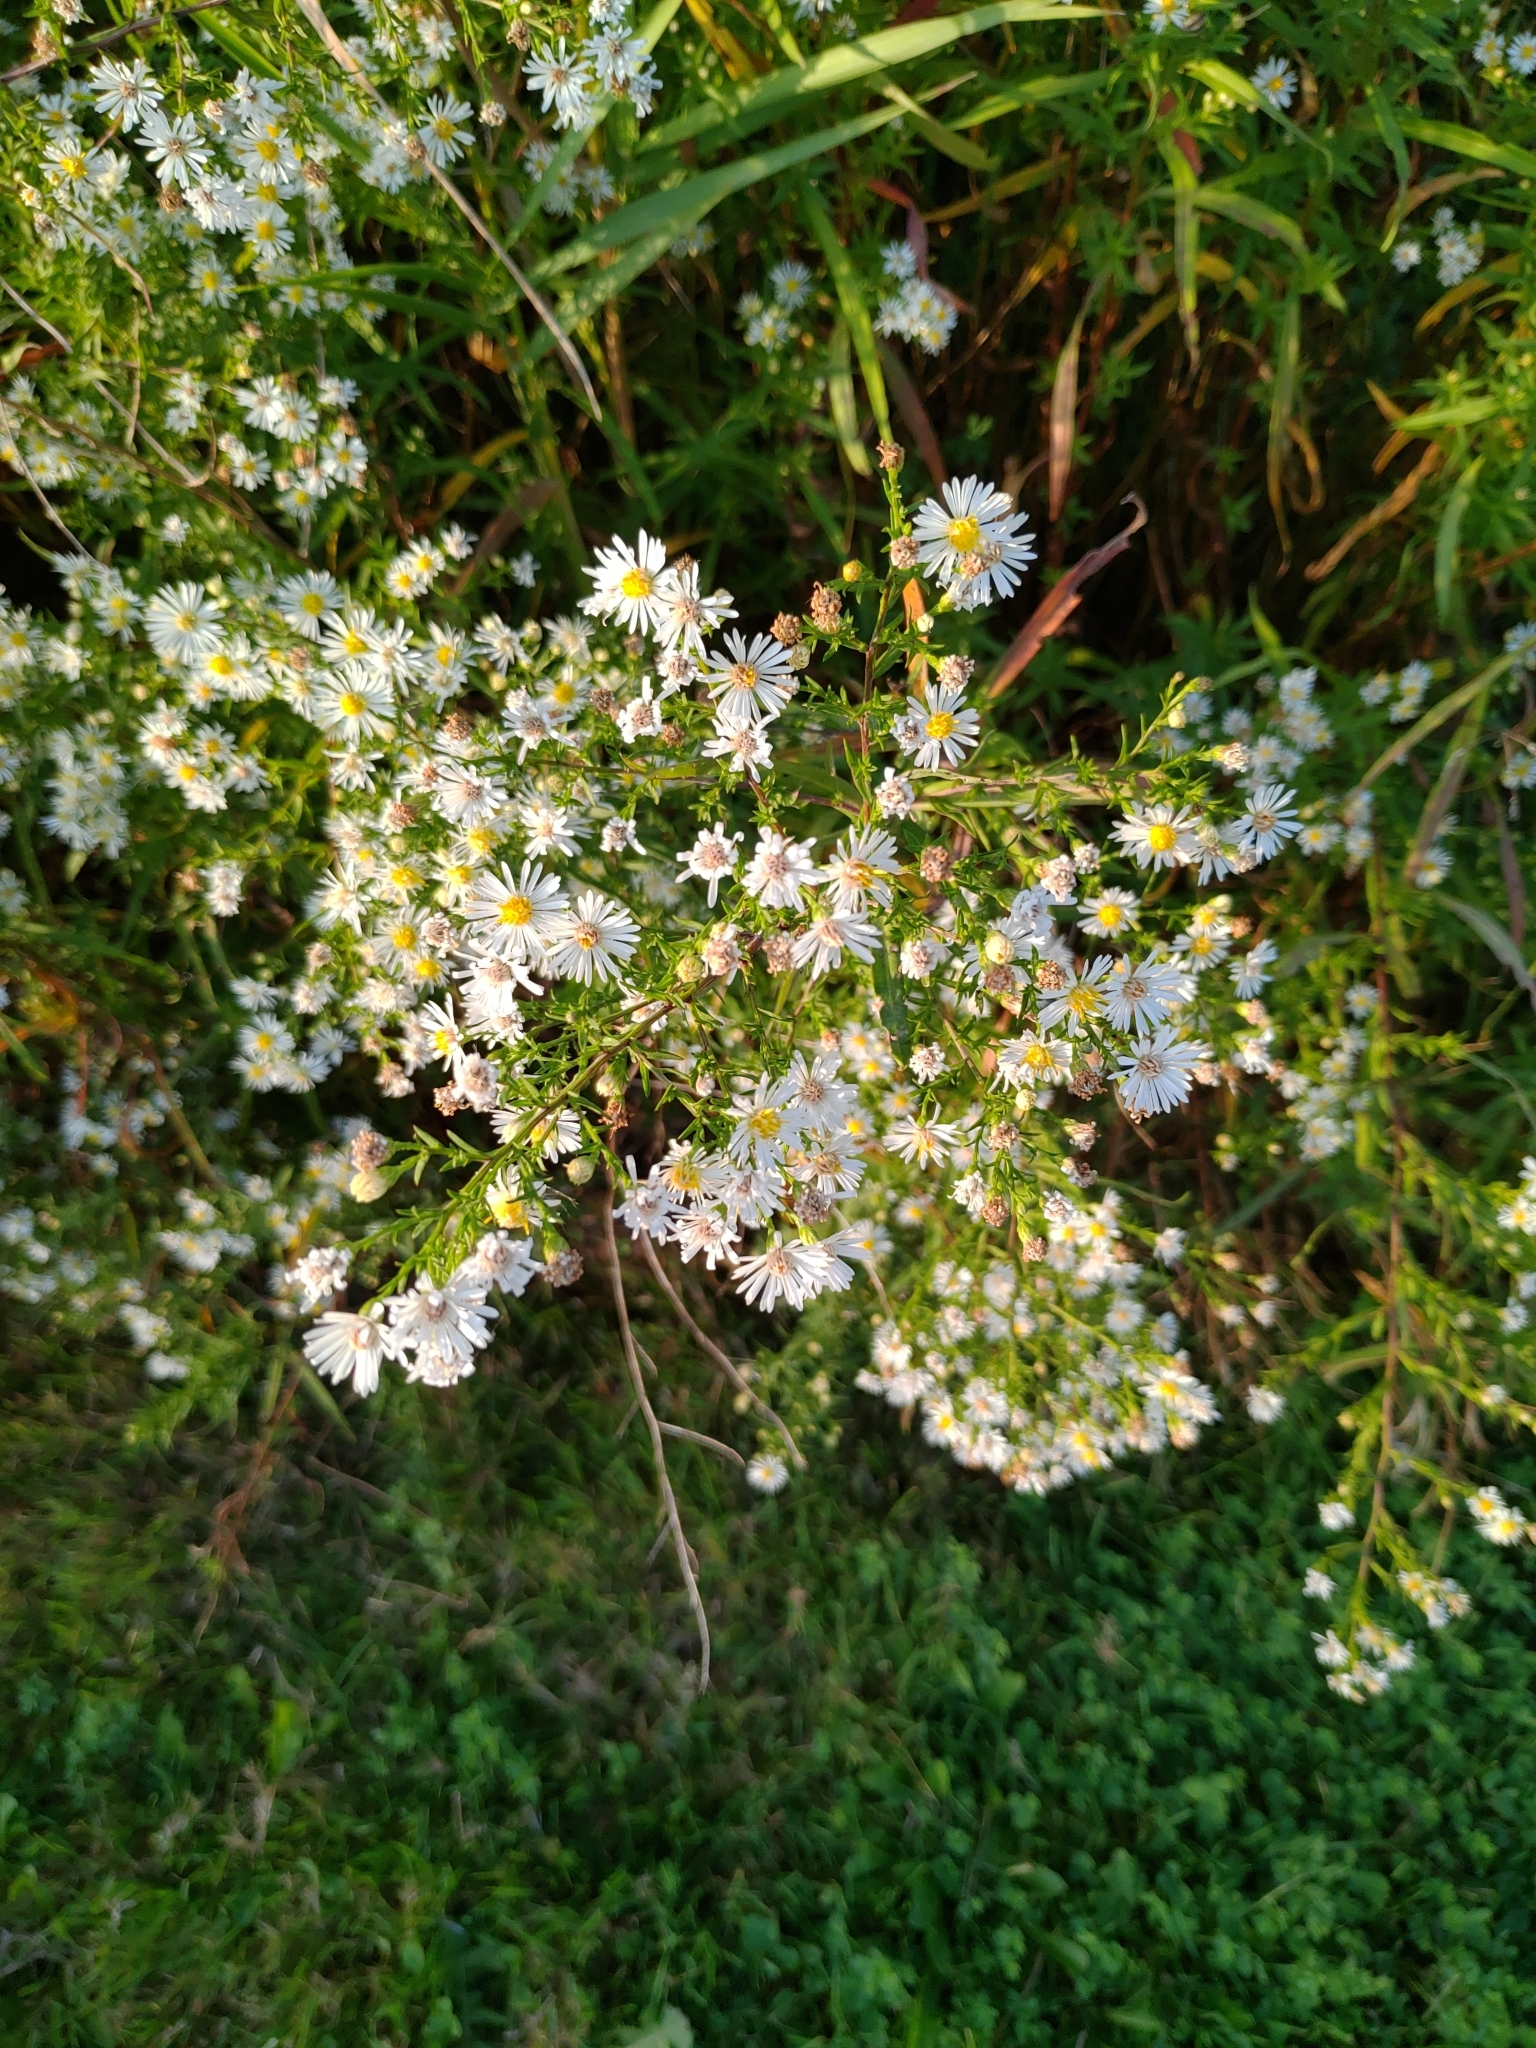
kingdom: Plantae
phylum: Tracheophyta
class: Magnoliopsida
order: Asterales
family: Asteraceae
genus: Symphyotrichum
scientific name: Symphyotrichum lanceolatum
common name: Panicled aster
